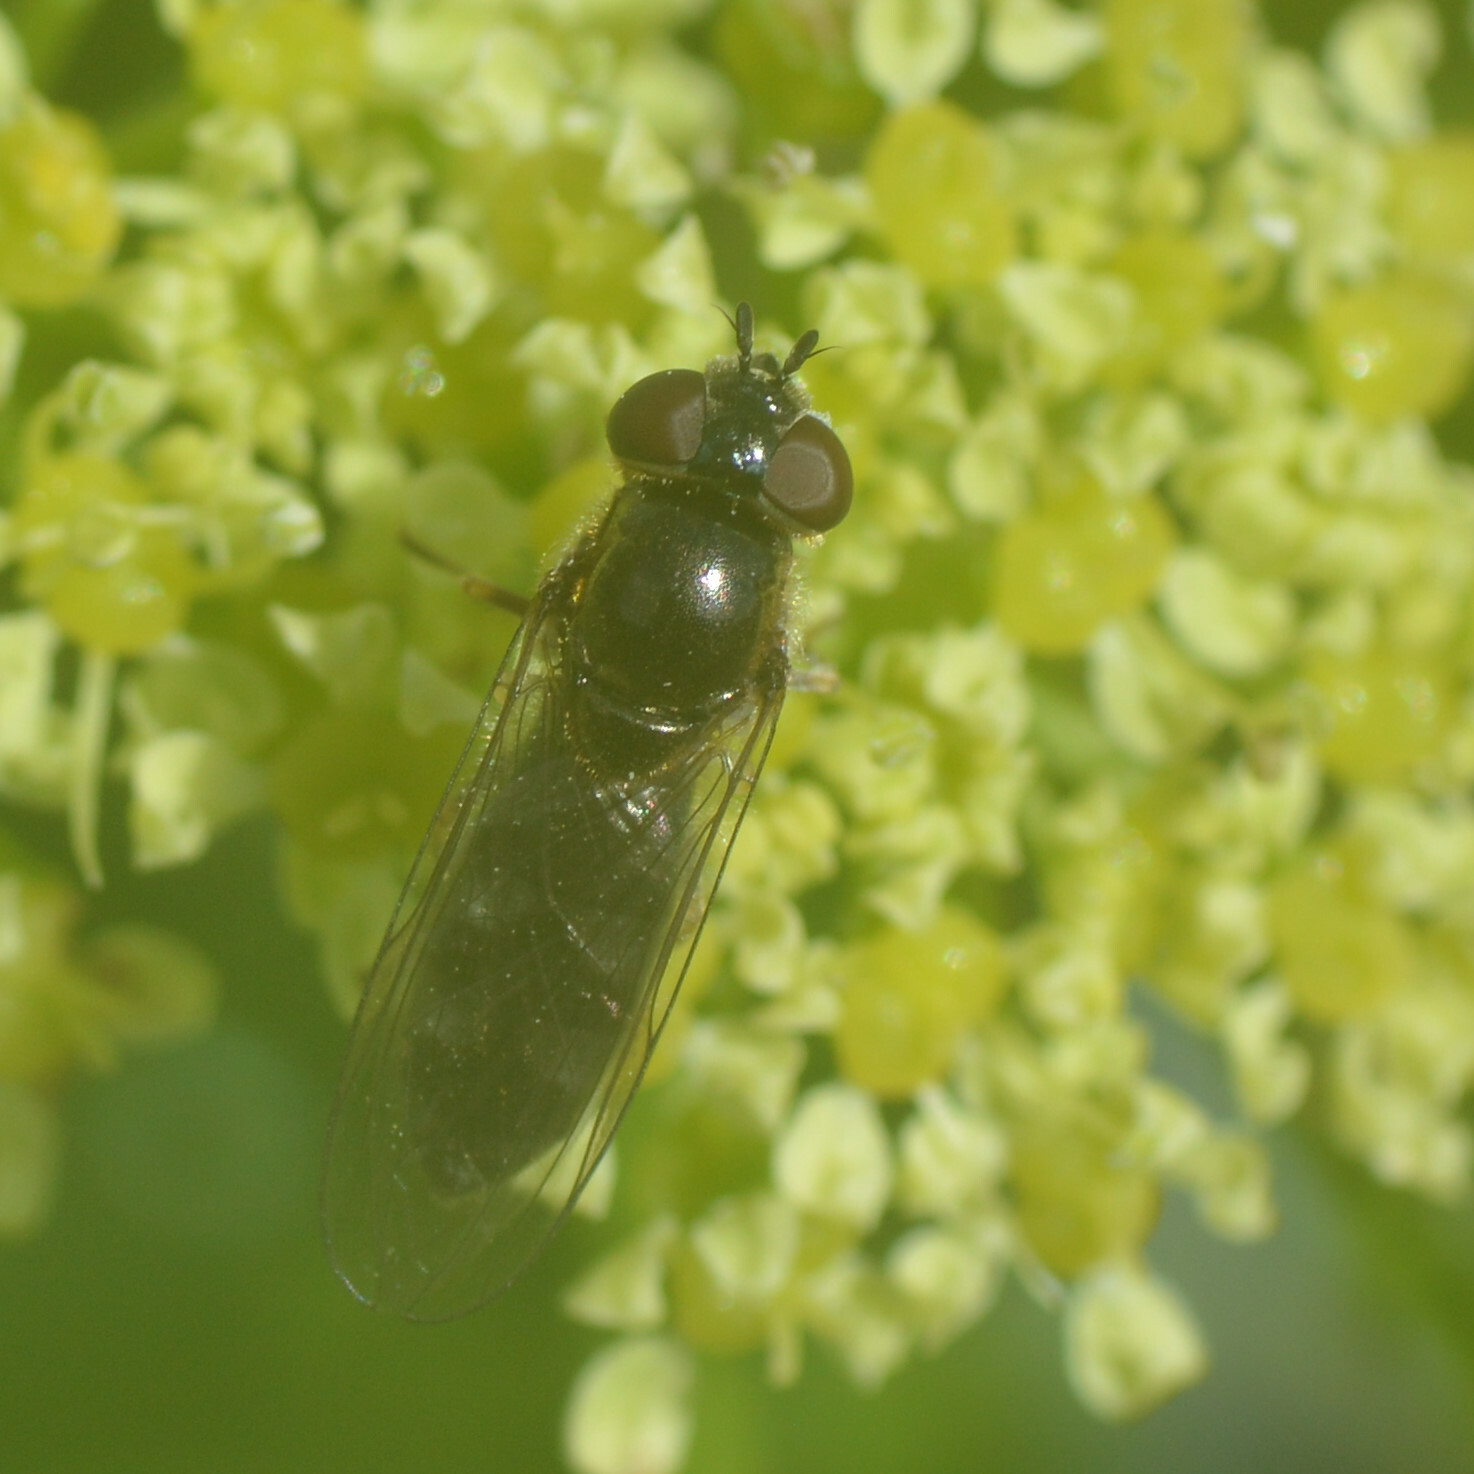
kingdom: Animalia
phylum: Arthropoda
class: Insecta
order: Diptera
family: Syrphidae
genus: Platycheirus
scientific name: Platycheirus albimanus
